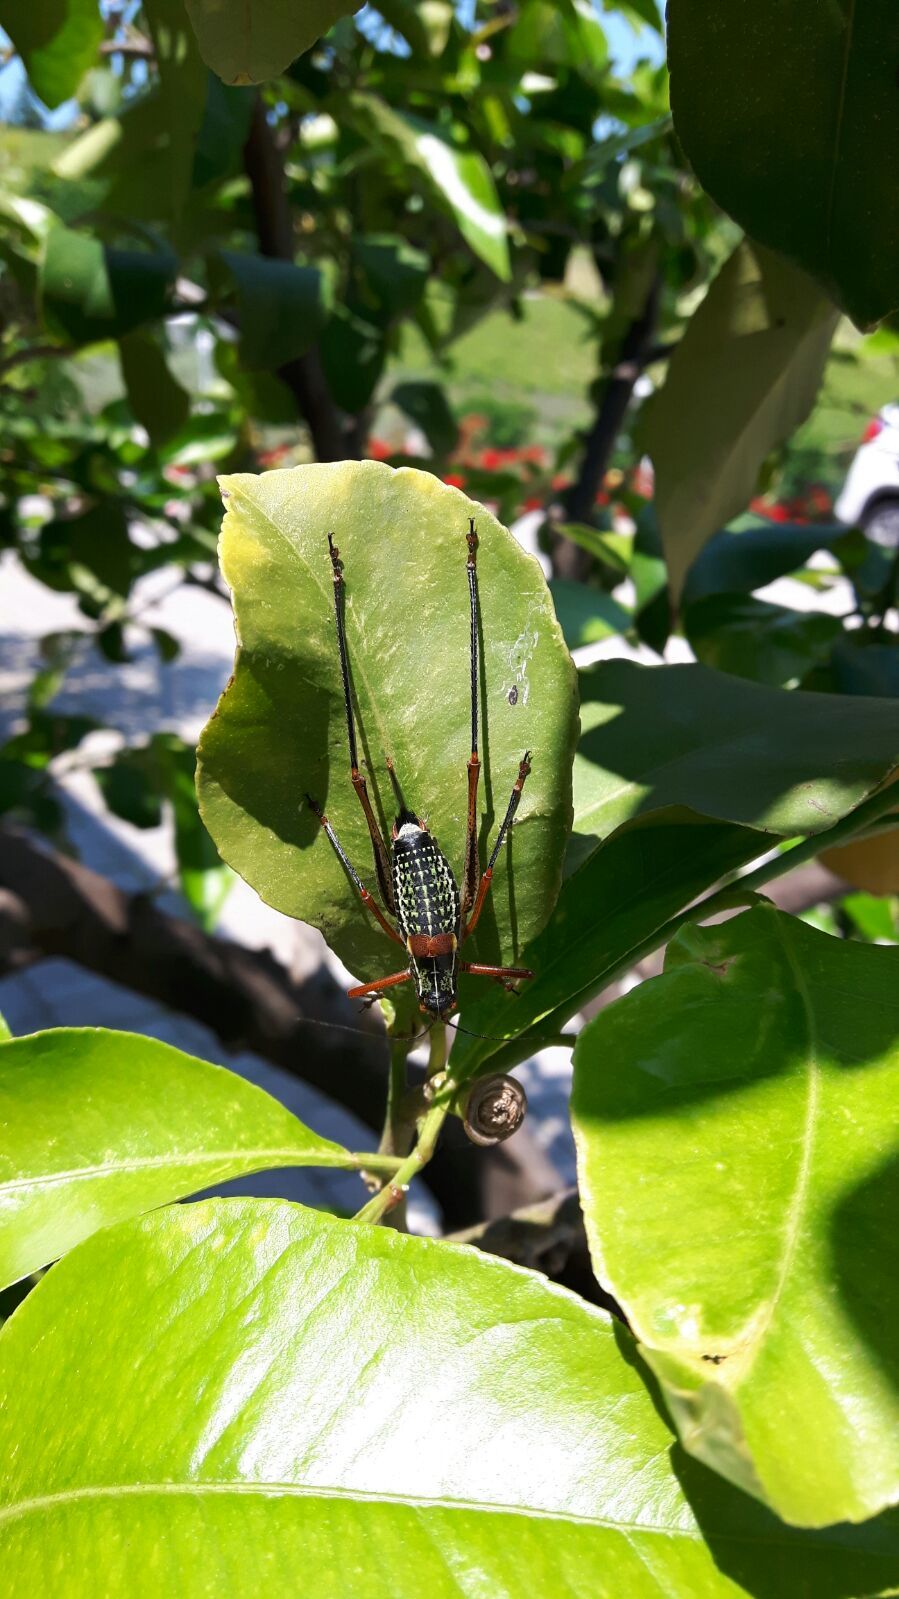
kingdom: Animalia
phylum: Arthropoda
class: Insecta
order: Orthoptera
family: Tettigoniidae
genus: Barbitistes
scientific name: Barbitistes vicetinus
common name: Vicentine saw-tailed bush-cricket
